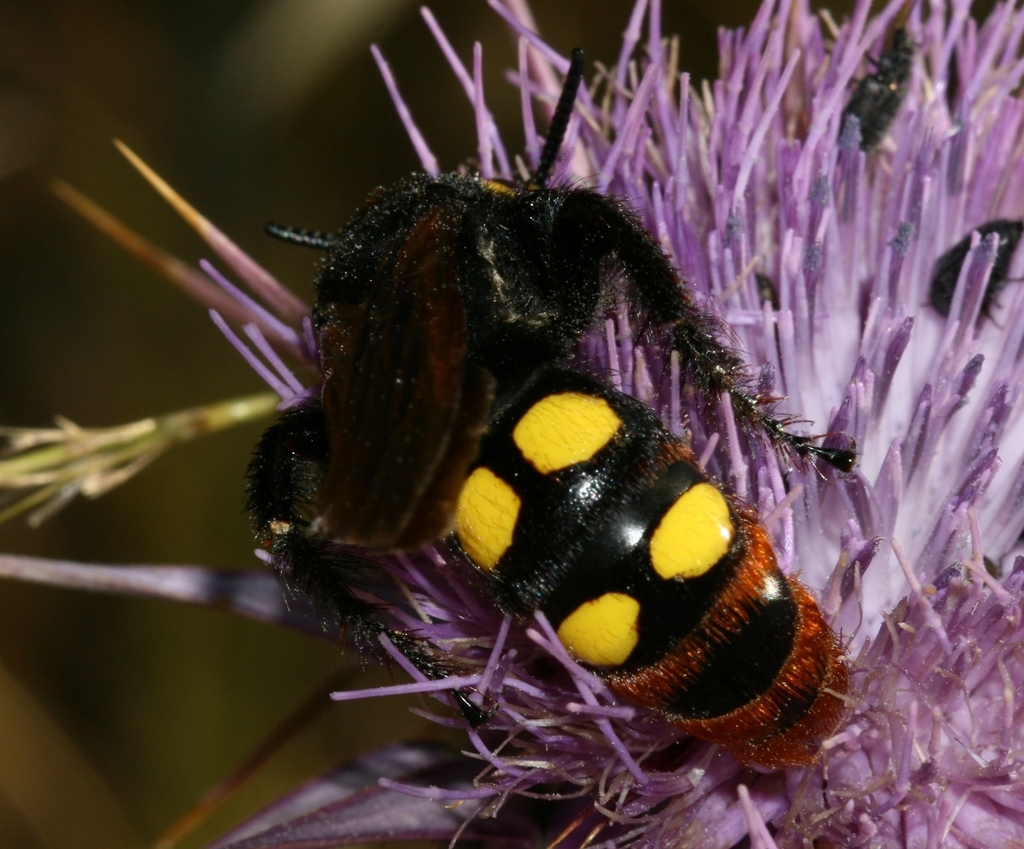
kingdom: Animalia
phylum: Arthropoda
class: Insecta
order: Hymenoptera
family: Scoliidae
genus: Megascolia
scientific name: Megascolia maculata
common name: Mammoth wasp
